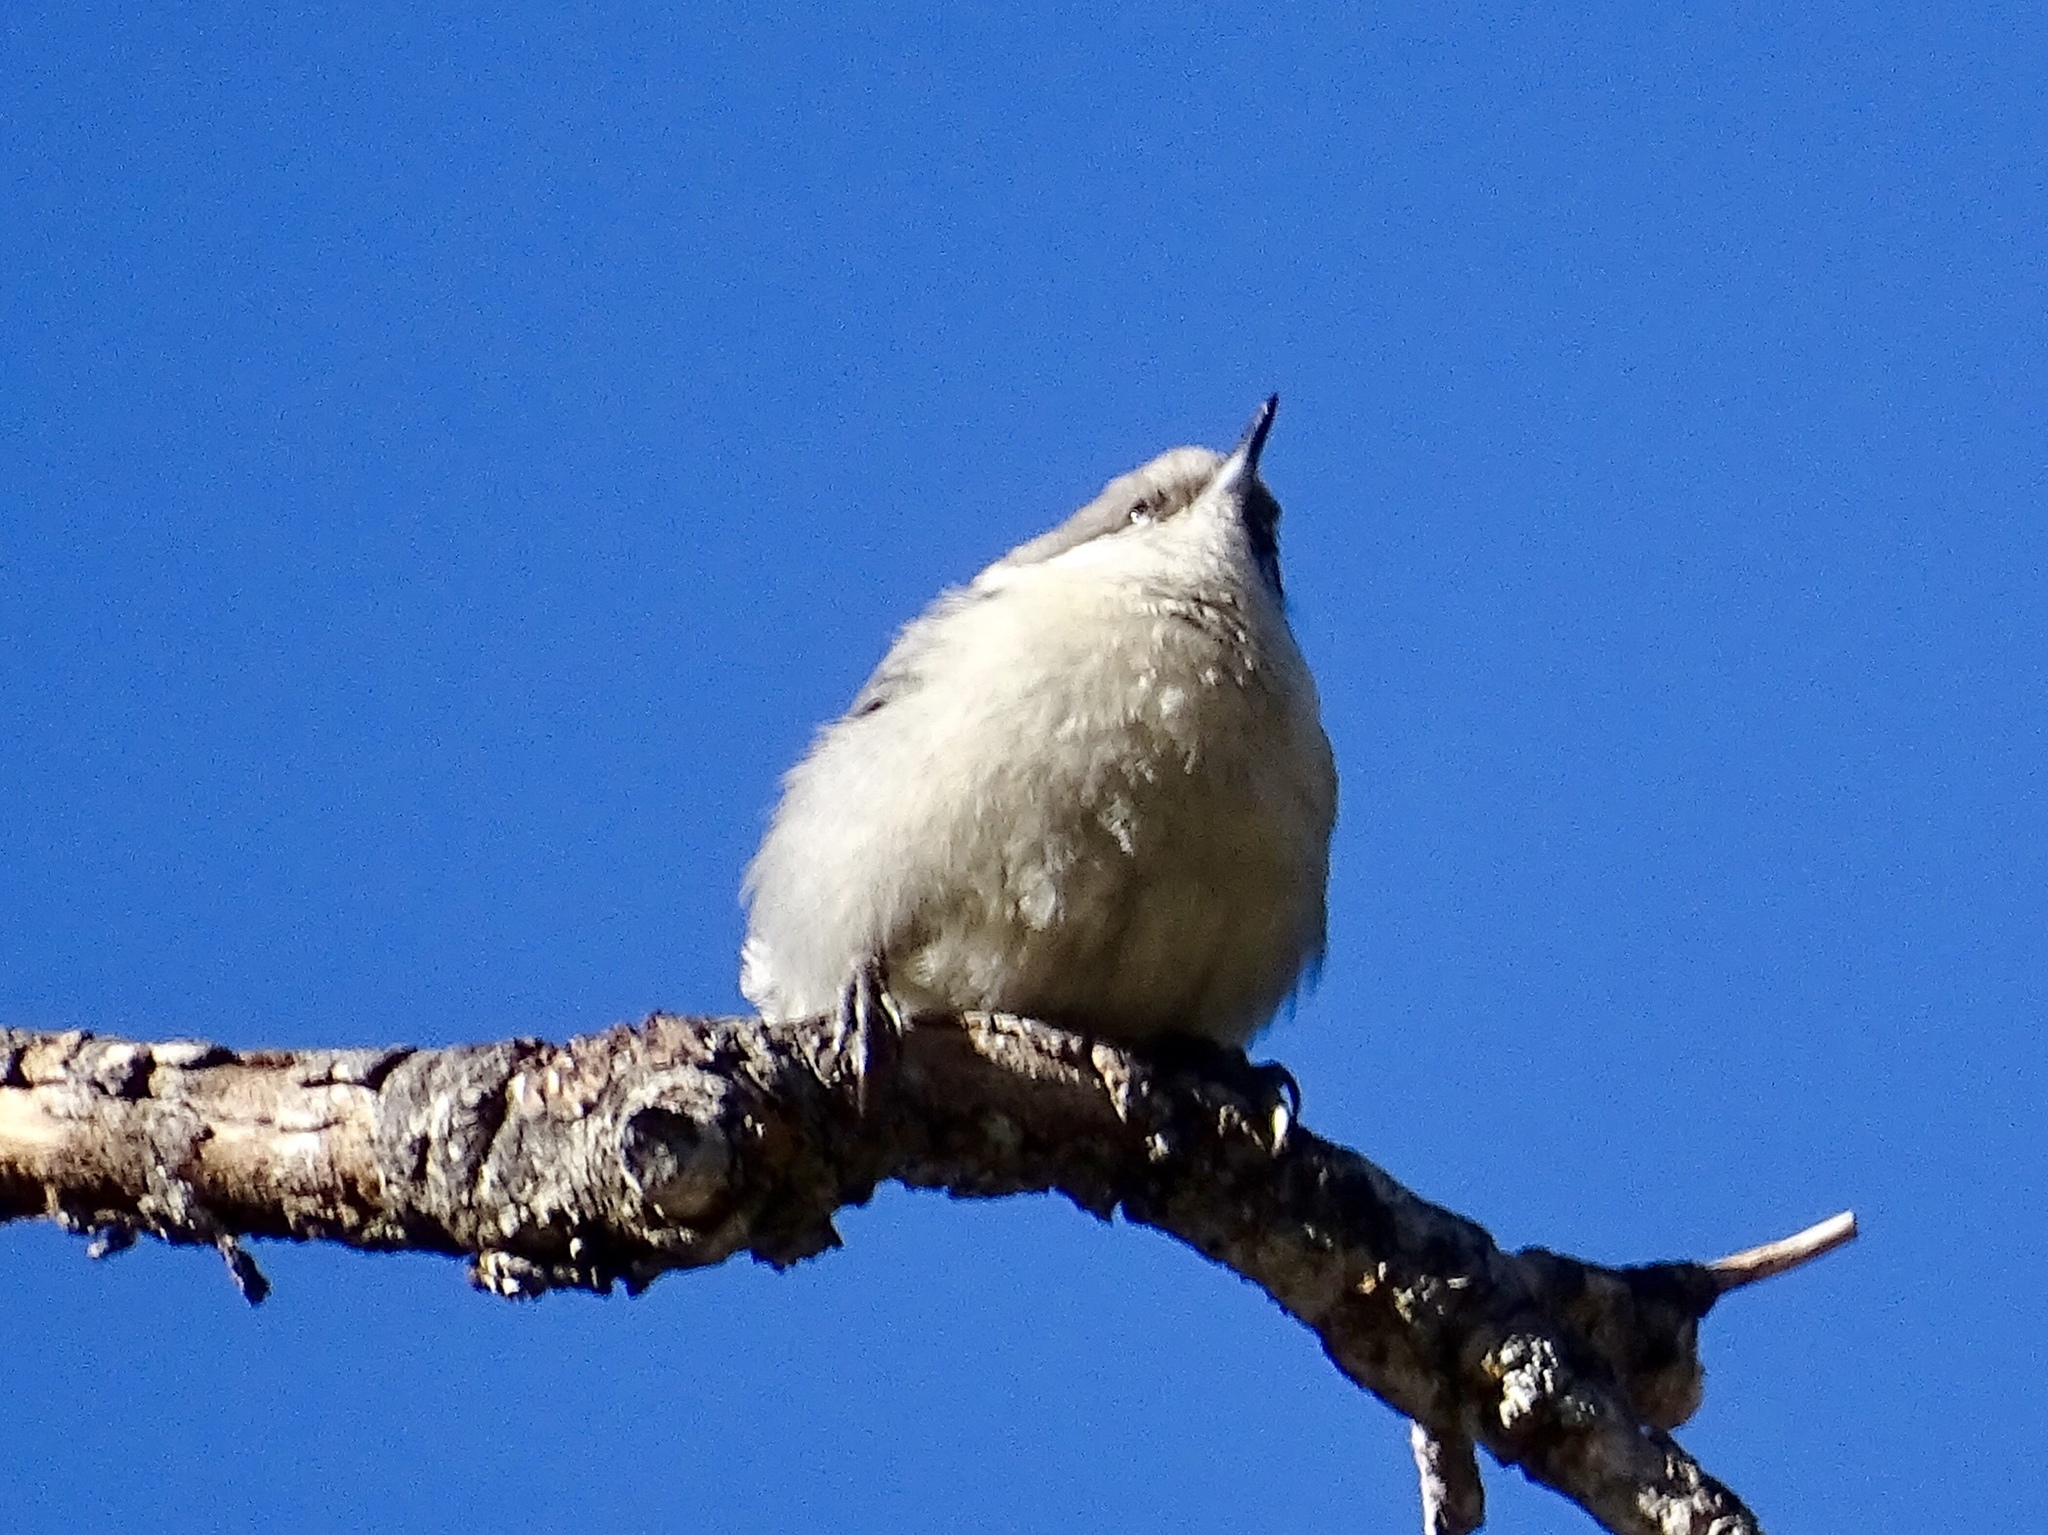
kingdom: Animalia
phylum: Chordata
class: Aves
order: Passeriformes
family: Sittidae
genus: Sitta
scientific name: Sitta pygmaea
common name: Pygmy nuthatch
